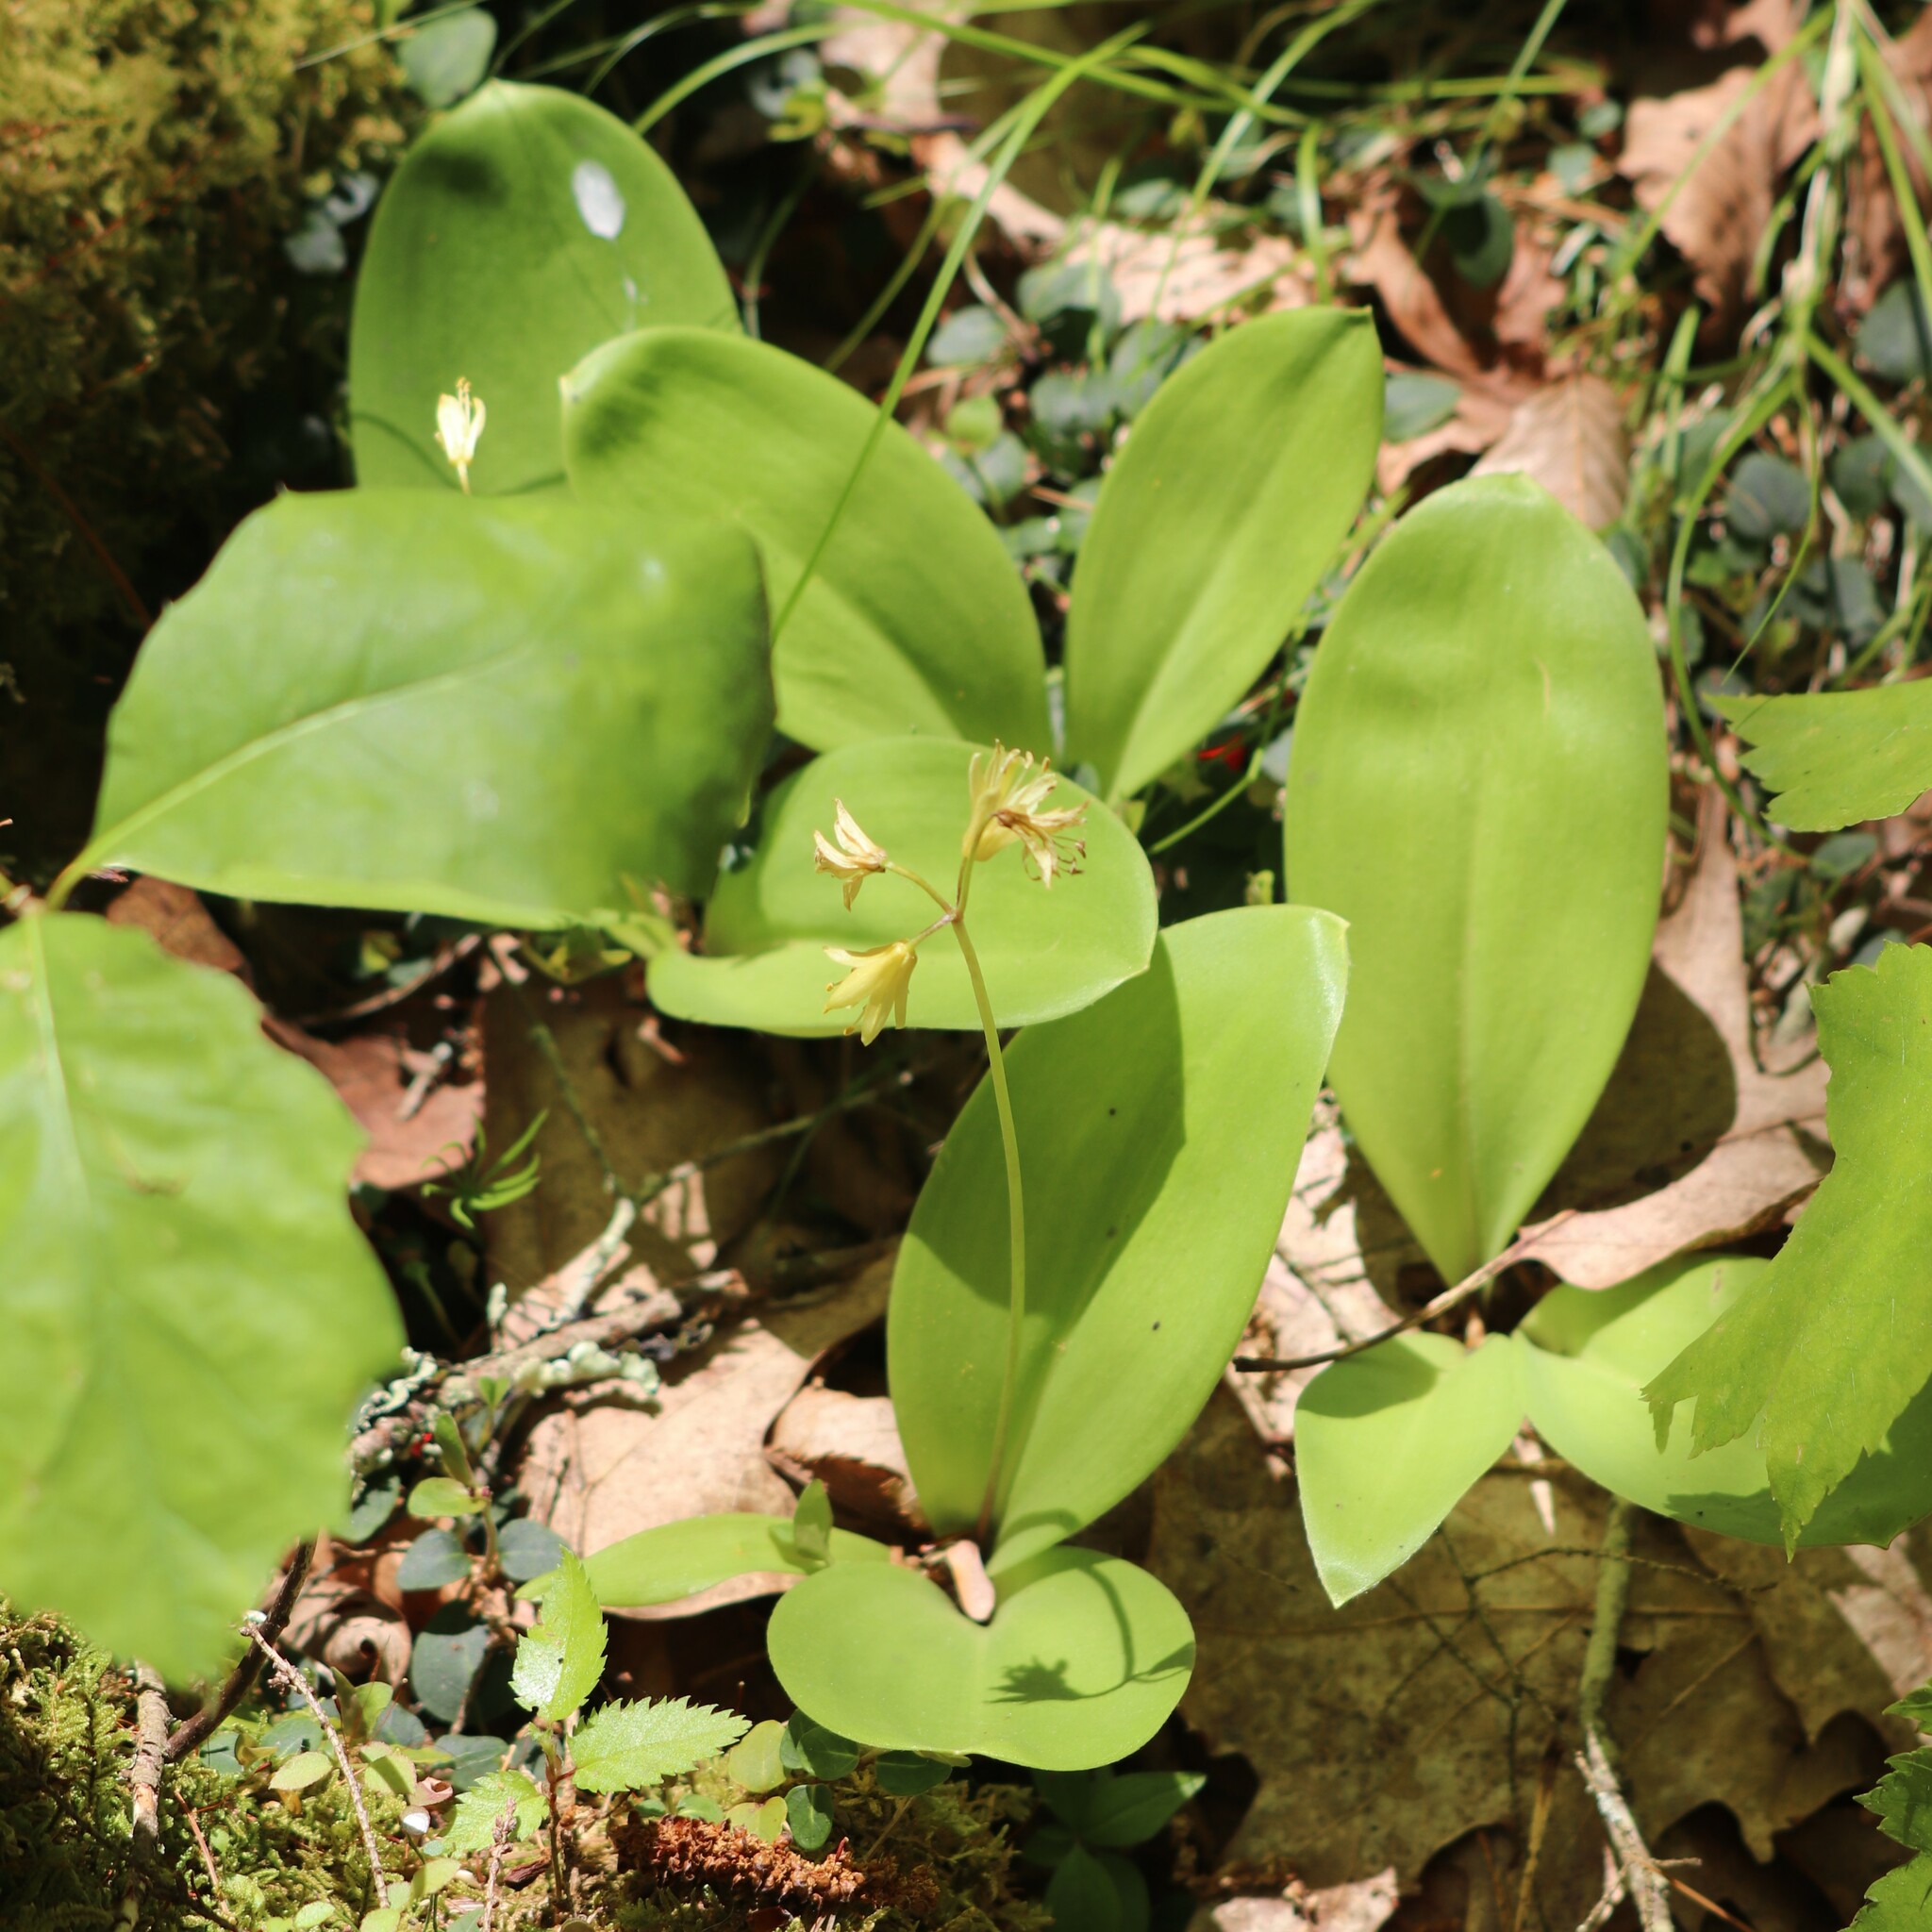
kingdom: Plantae
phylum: Tracheophyta
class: Liliopsida
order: Liliales
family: Liliaceae
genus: Clintonia
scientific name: Clintonia borealis
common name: Yellow clintonia
